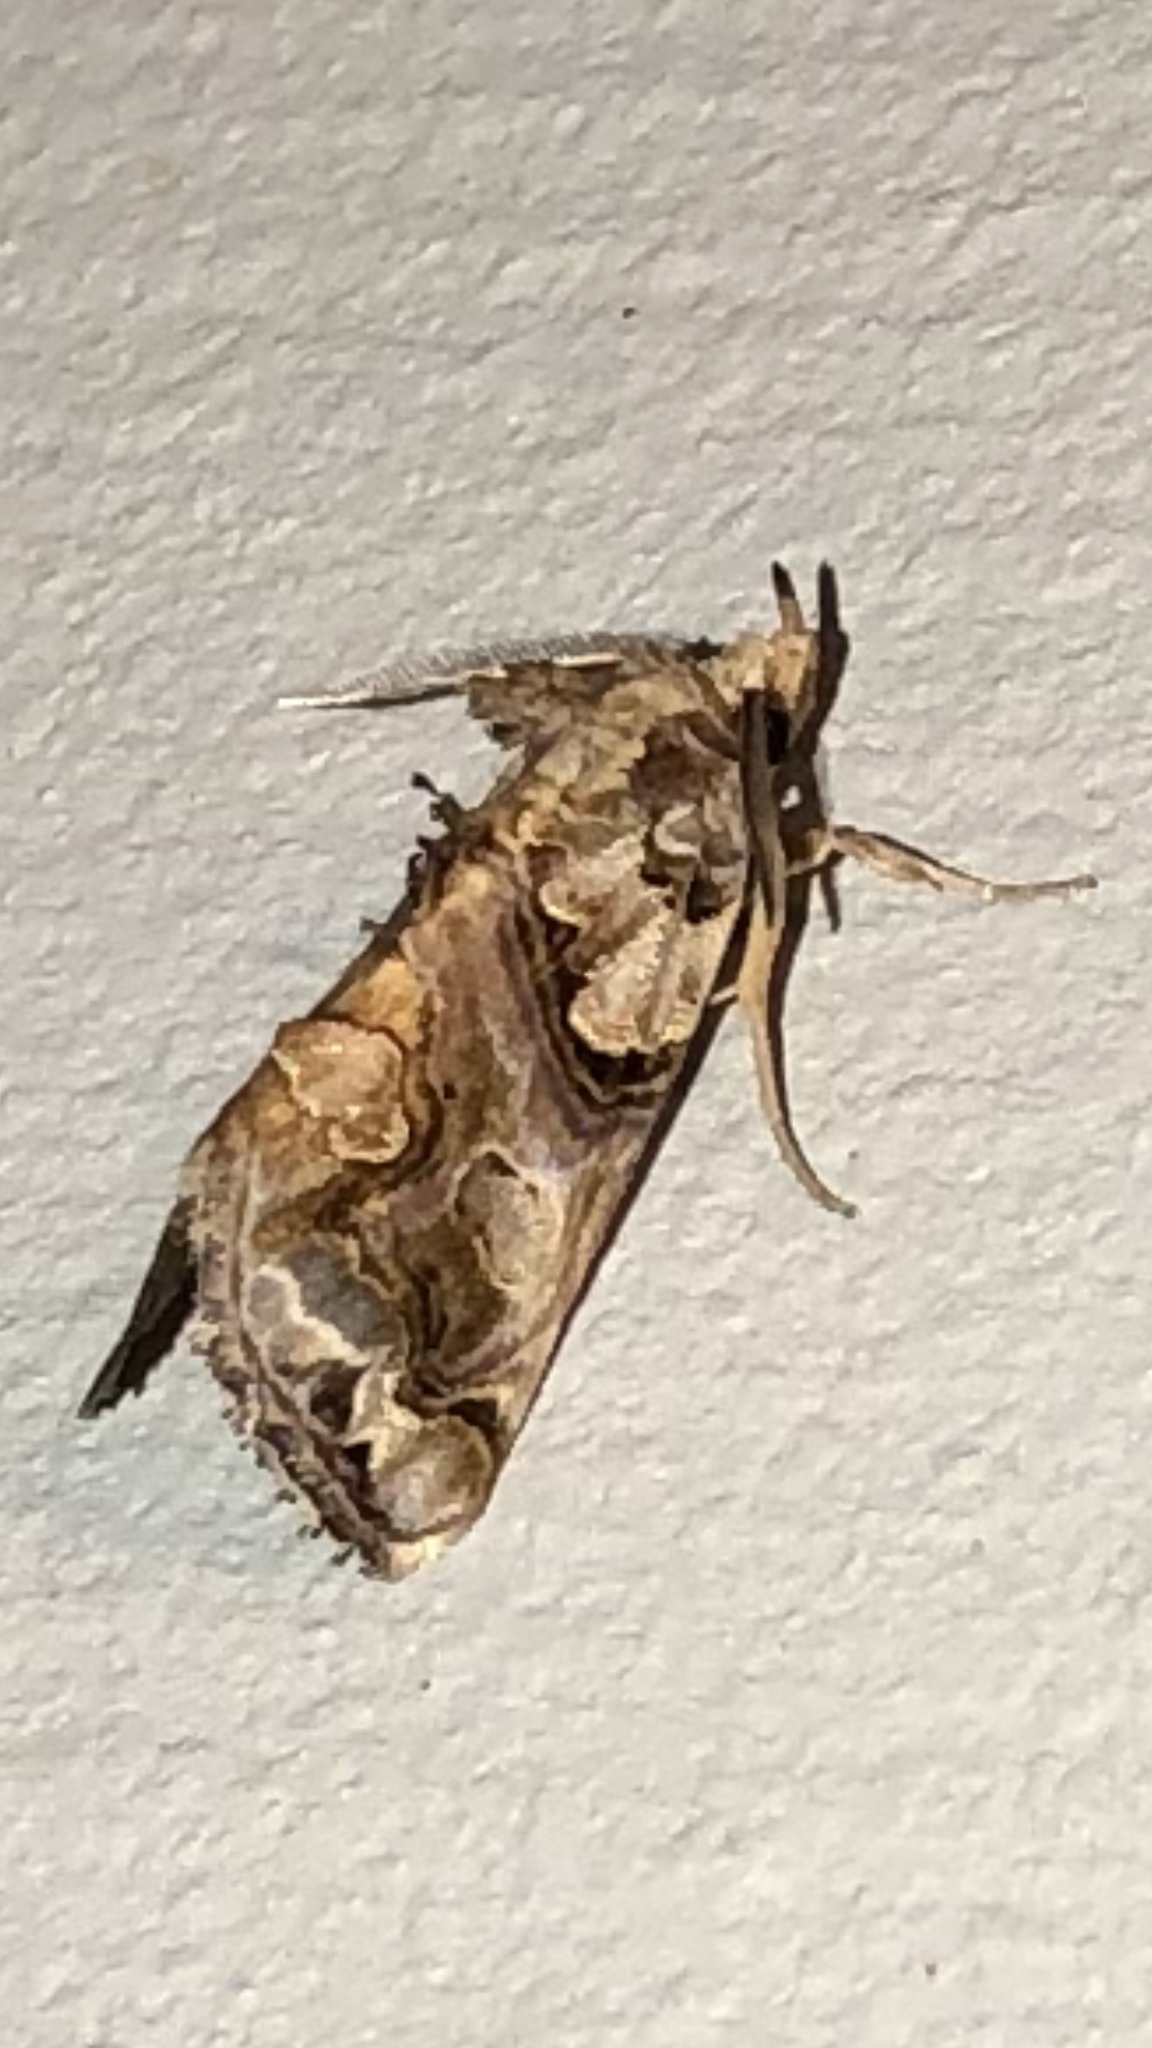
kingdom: Animalia
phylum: Arthropoda
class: Insecta
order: Lepidoptera
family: Erebidae
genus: Plusiodonta
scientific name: Plusiodonta compressipalpis
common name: Moonseed moth
